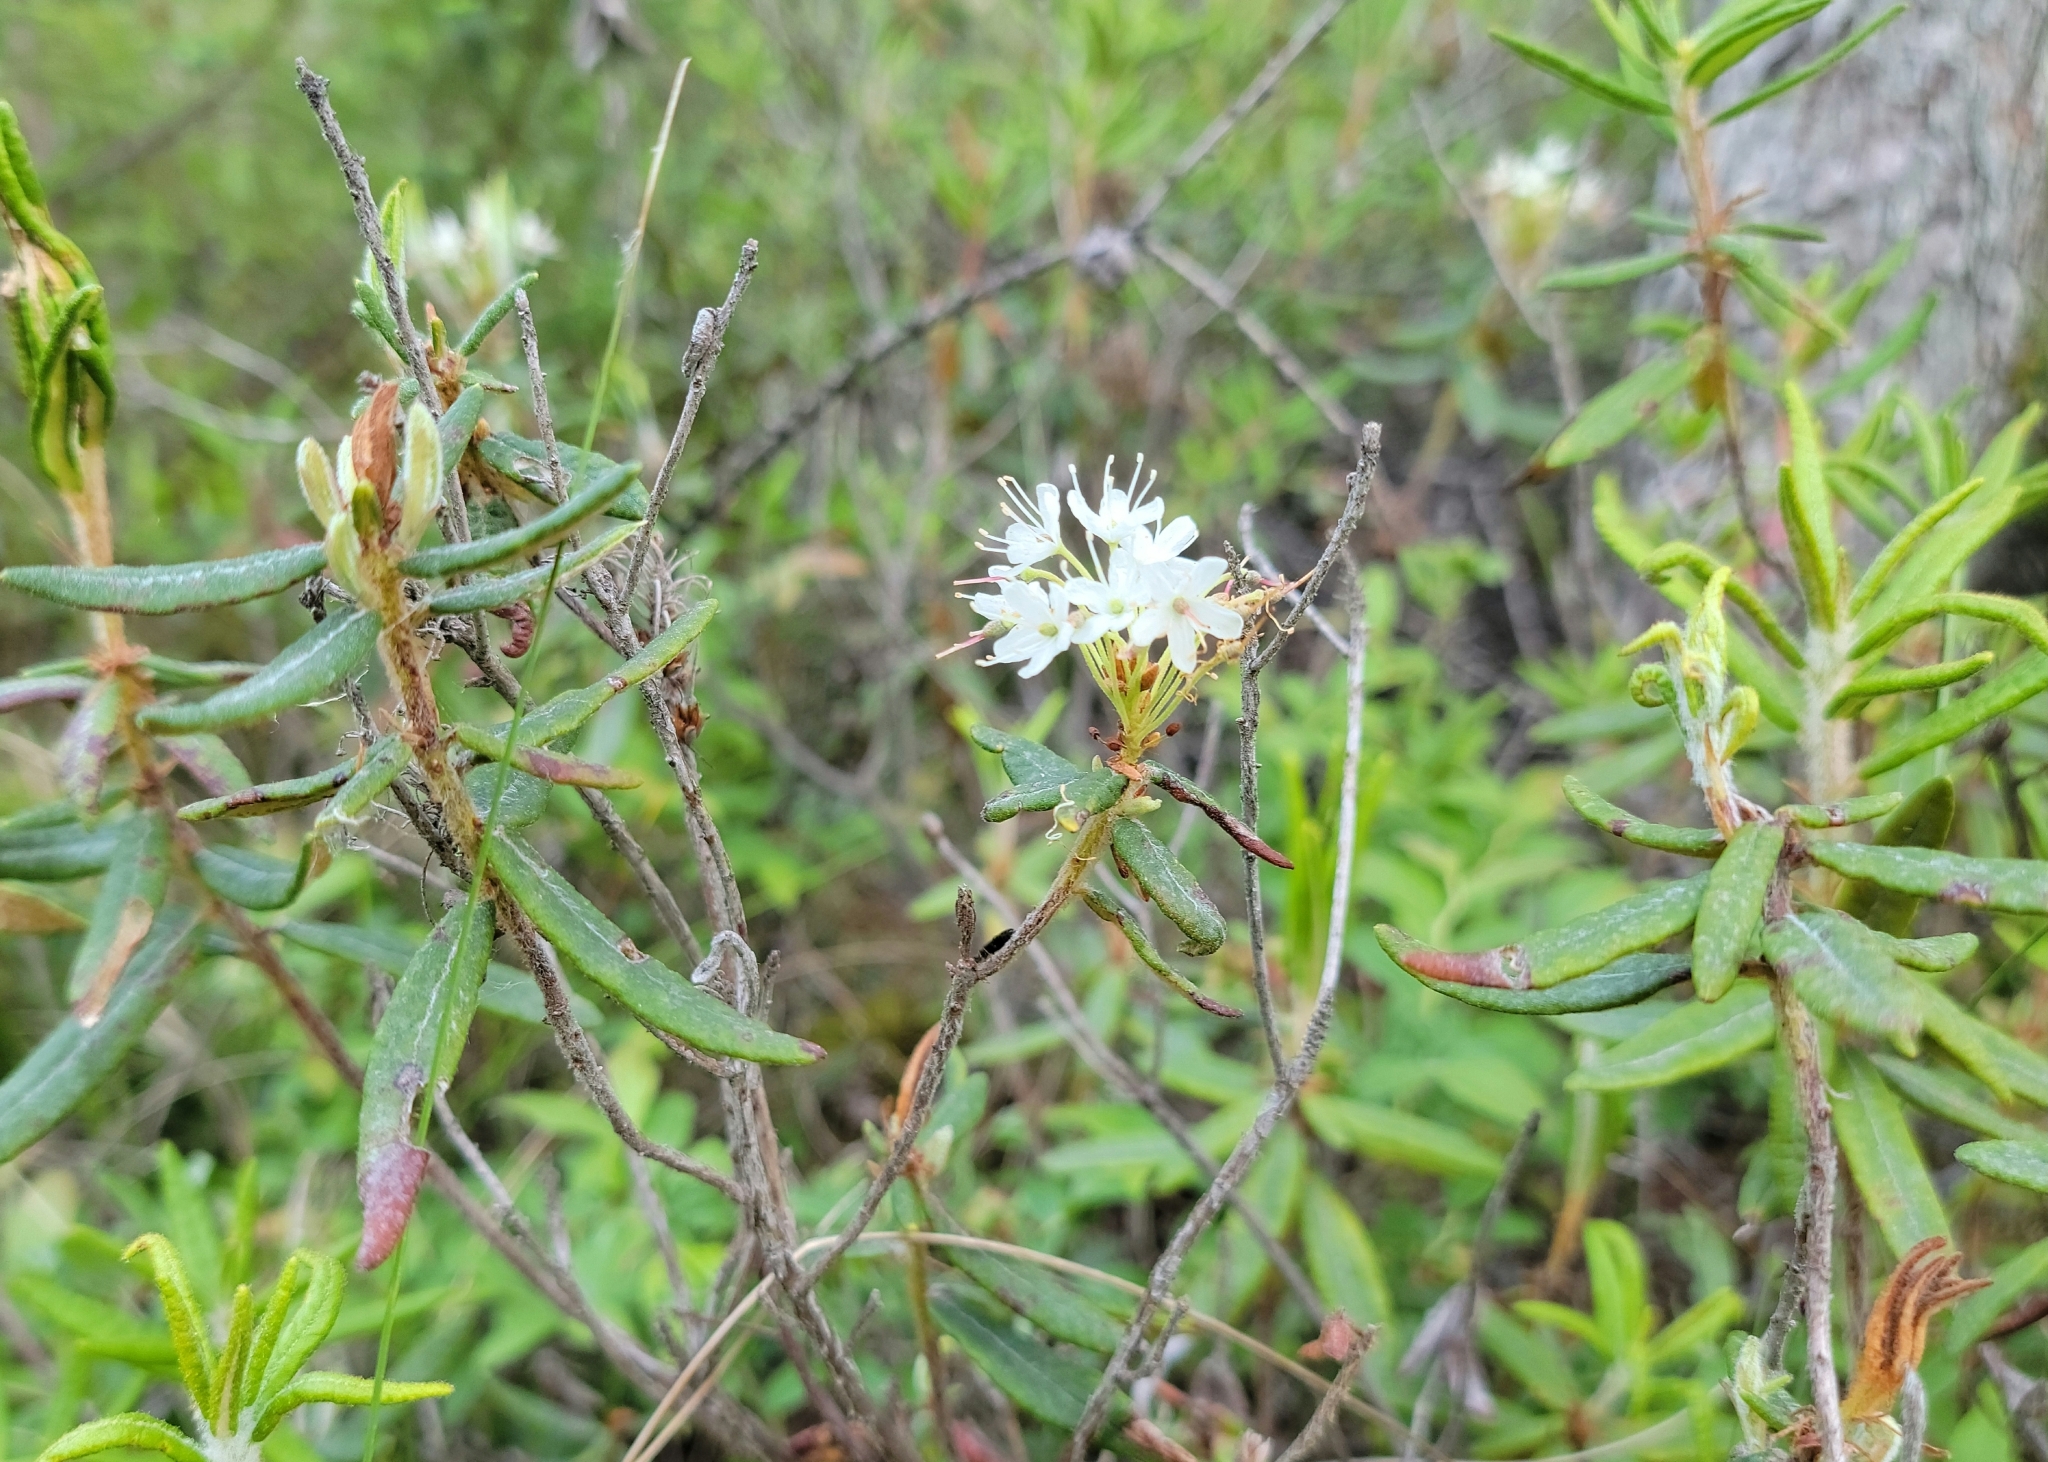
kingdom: Plantae
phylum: Tracheophyta
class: Magnoliopsida
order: Ericales
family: Ericaceae
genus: Rhododendron
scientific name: Rhododendron groenlandicum
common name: Bog labrador tea
